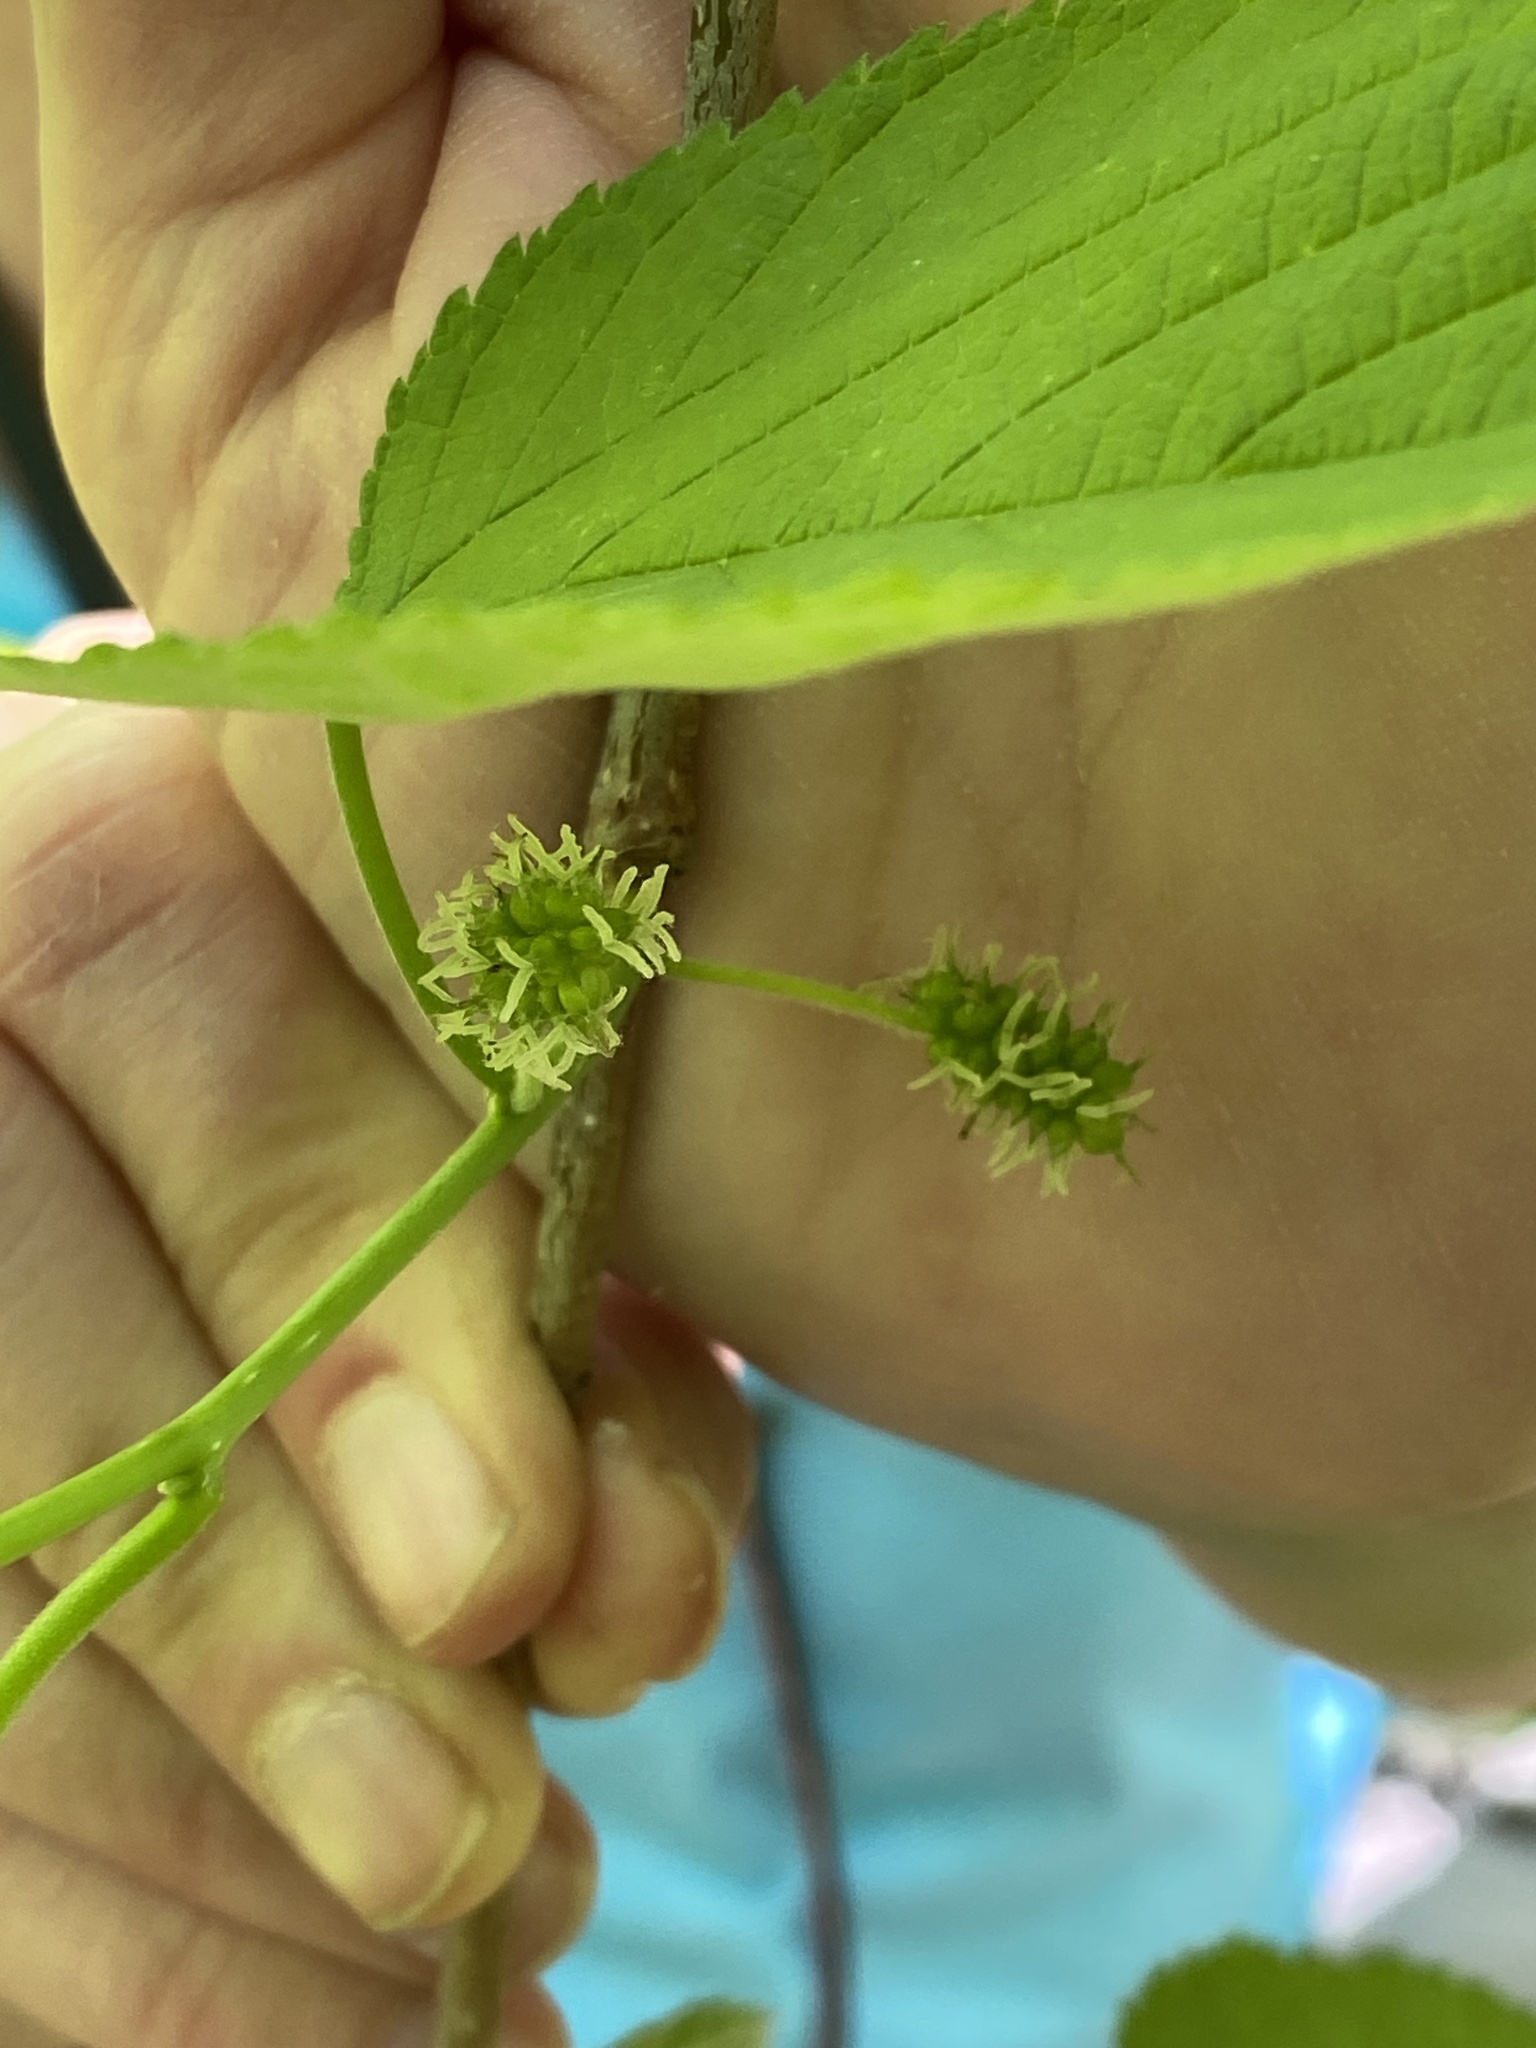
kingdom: Plantae
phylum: Tracheophyta
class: Magnoliopsida
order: Rosales
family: Moraceae
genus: Morus
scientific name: Morus rubra
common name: Red mulberry
